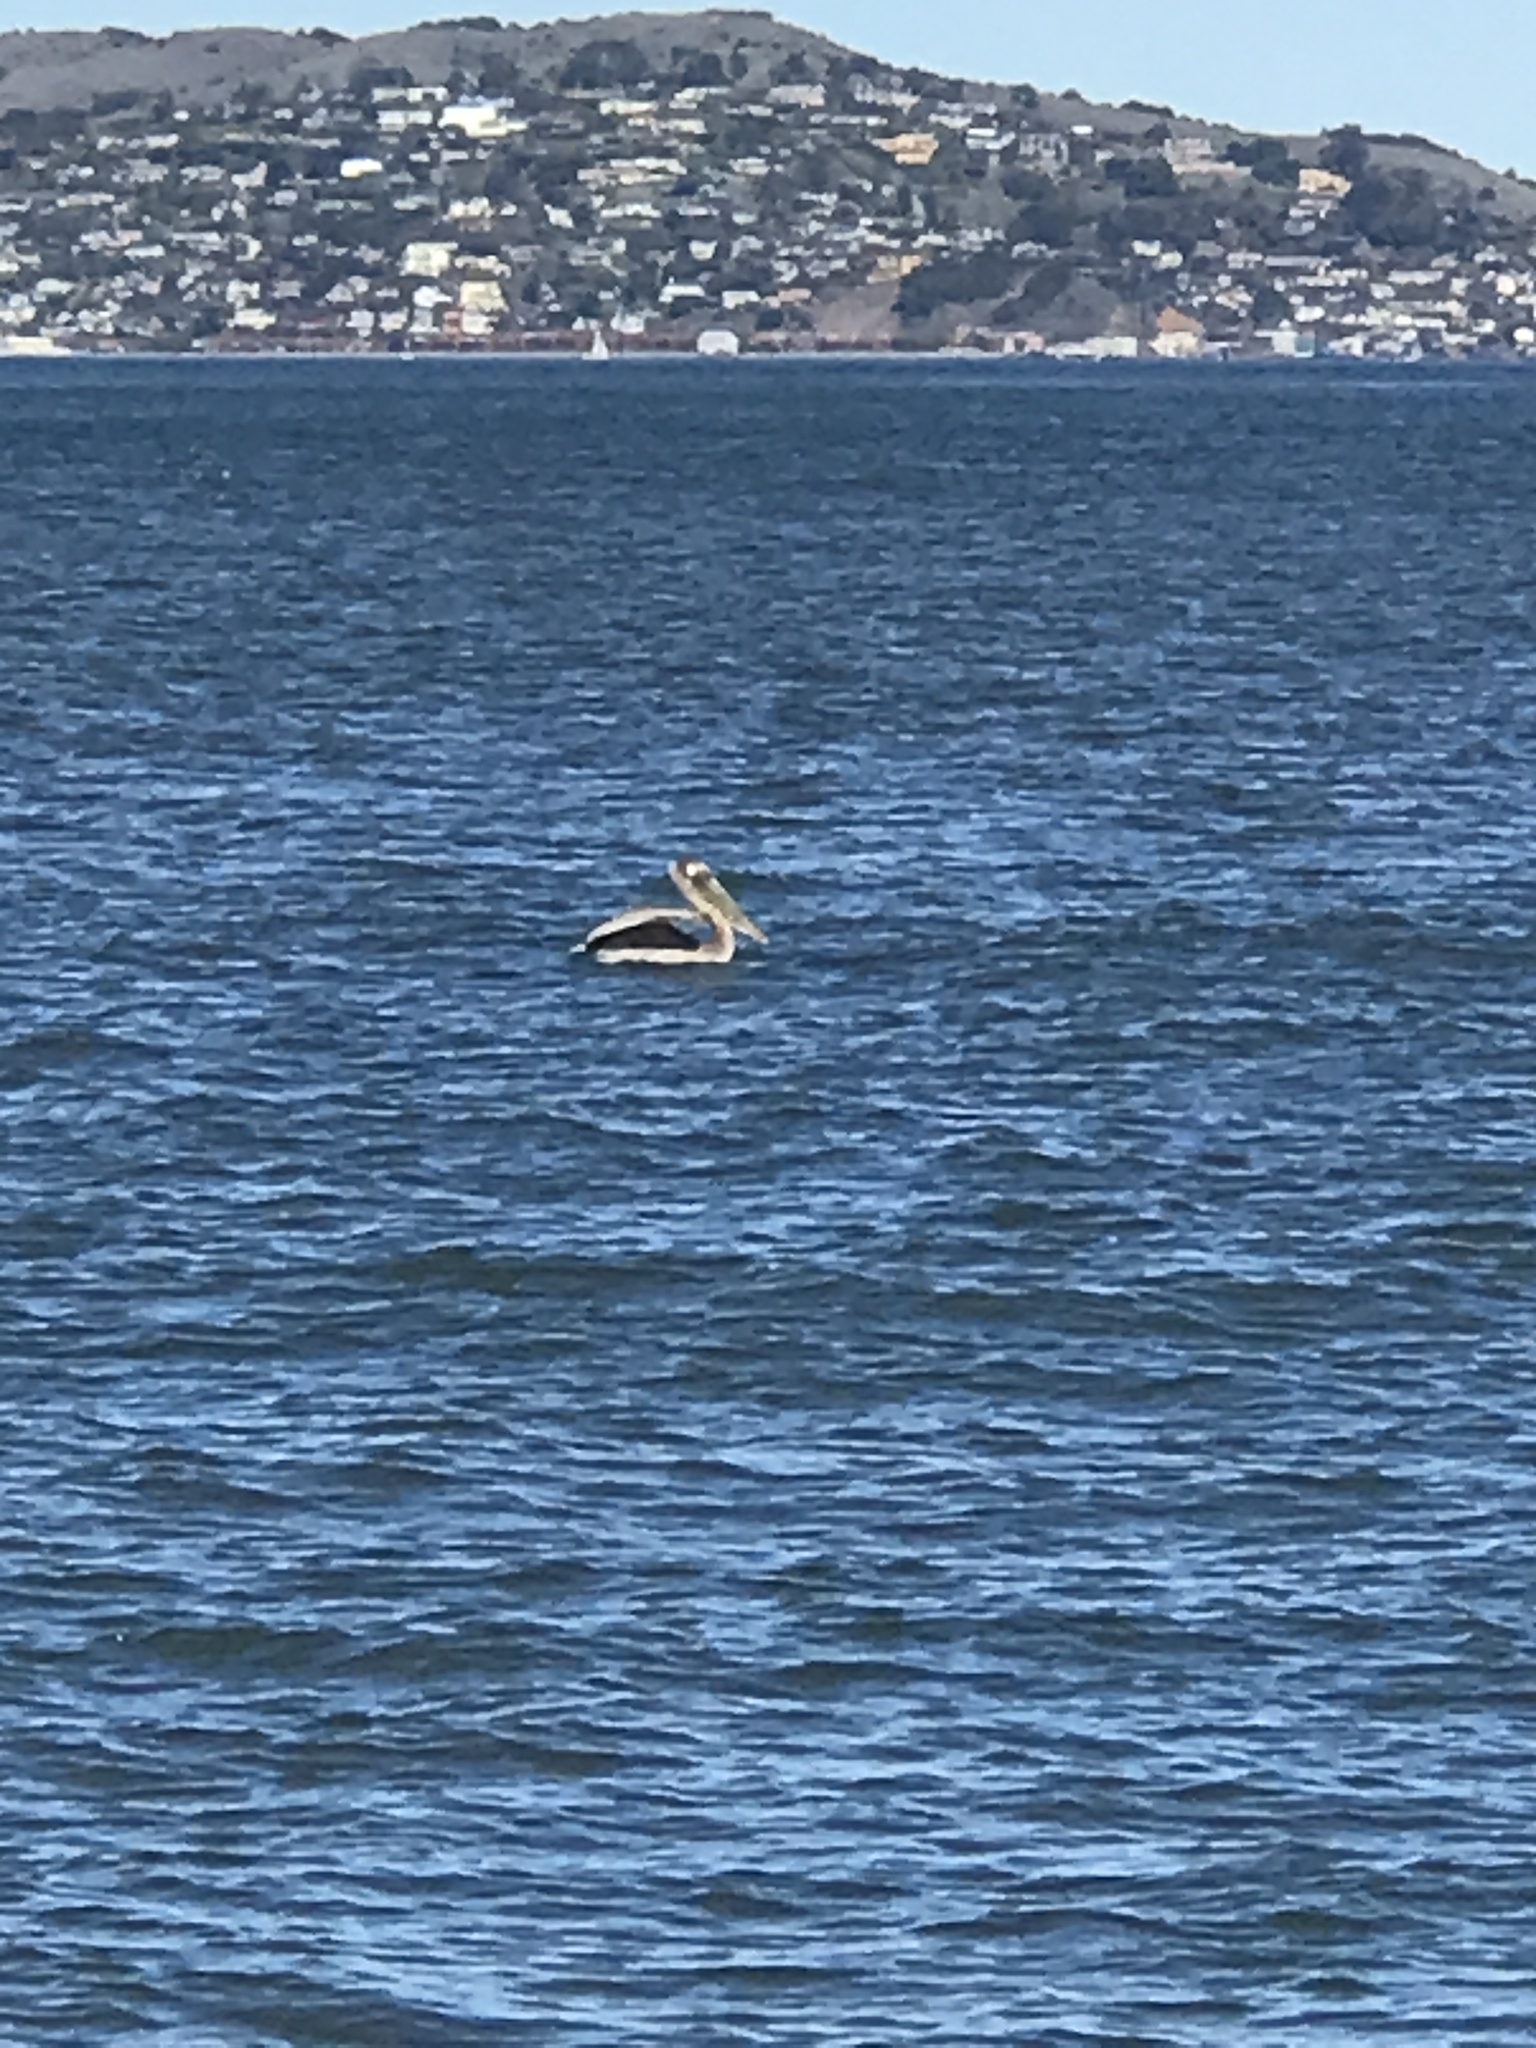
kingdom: Animalia
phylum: Chordata
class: Aves
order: Pelecaniformes
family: Pelecanidae
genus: Pelecanus
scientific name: Pelecanus occidentalis
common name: Brown pelican
